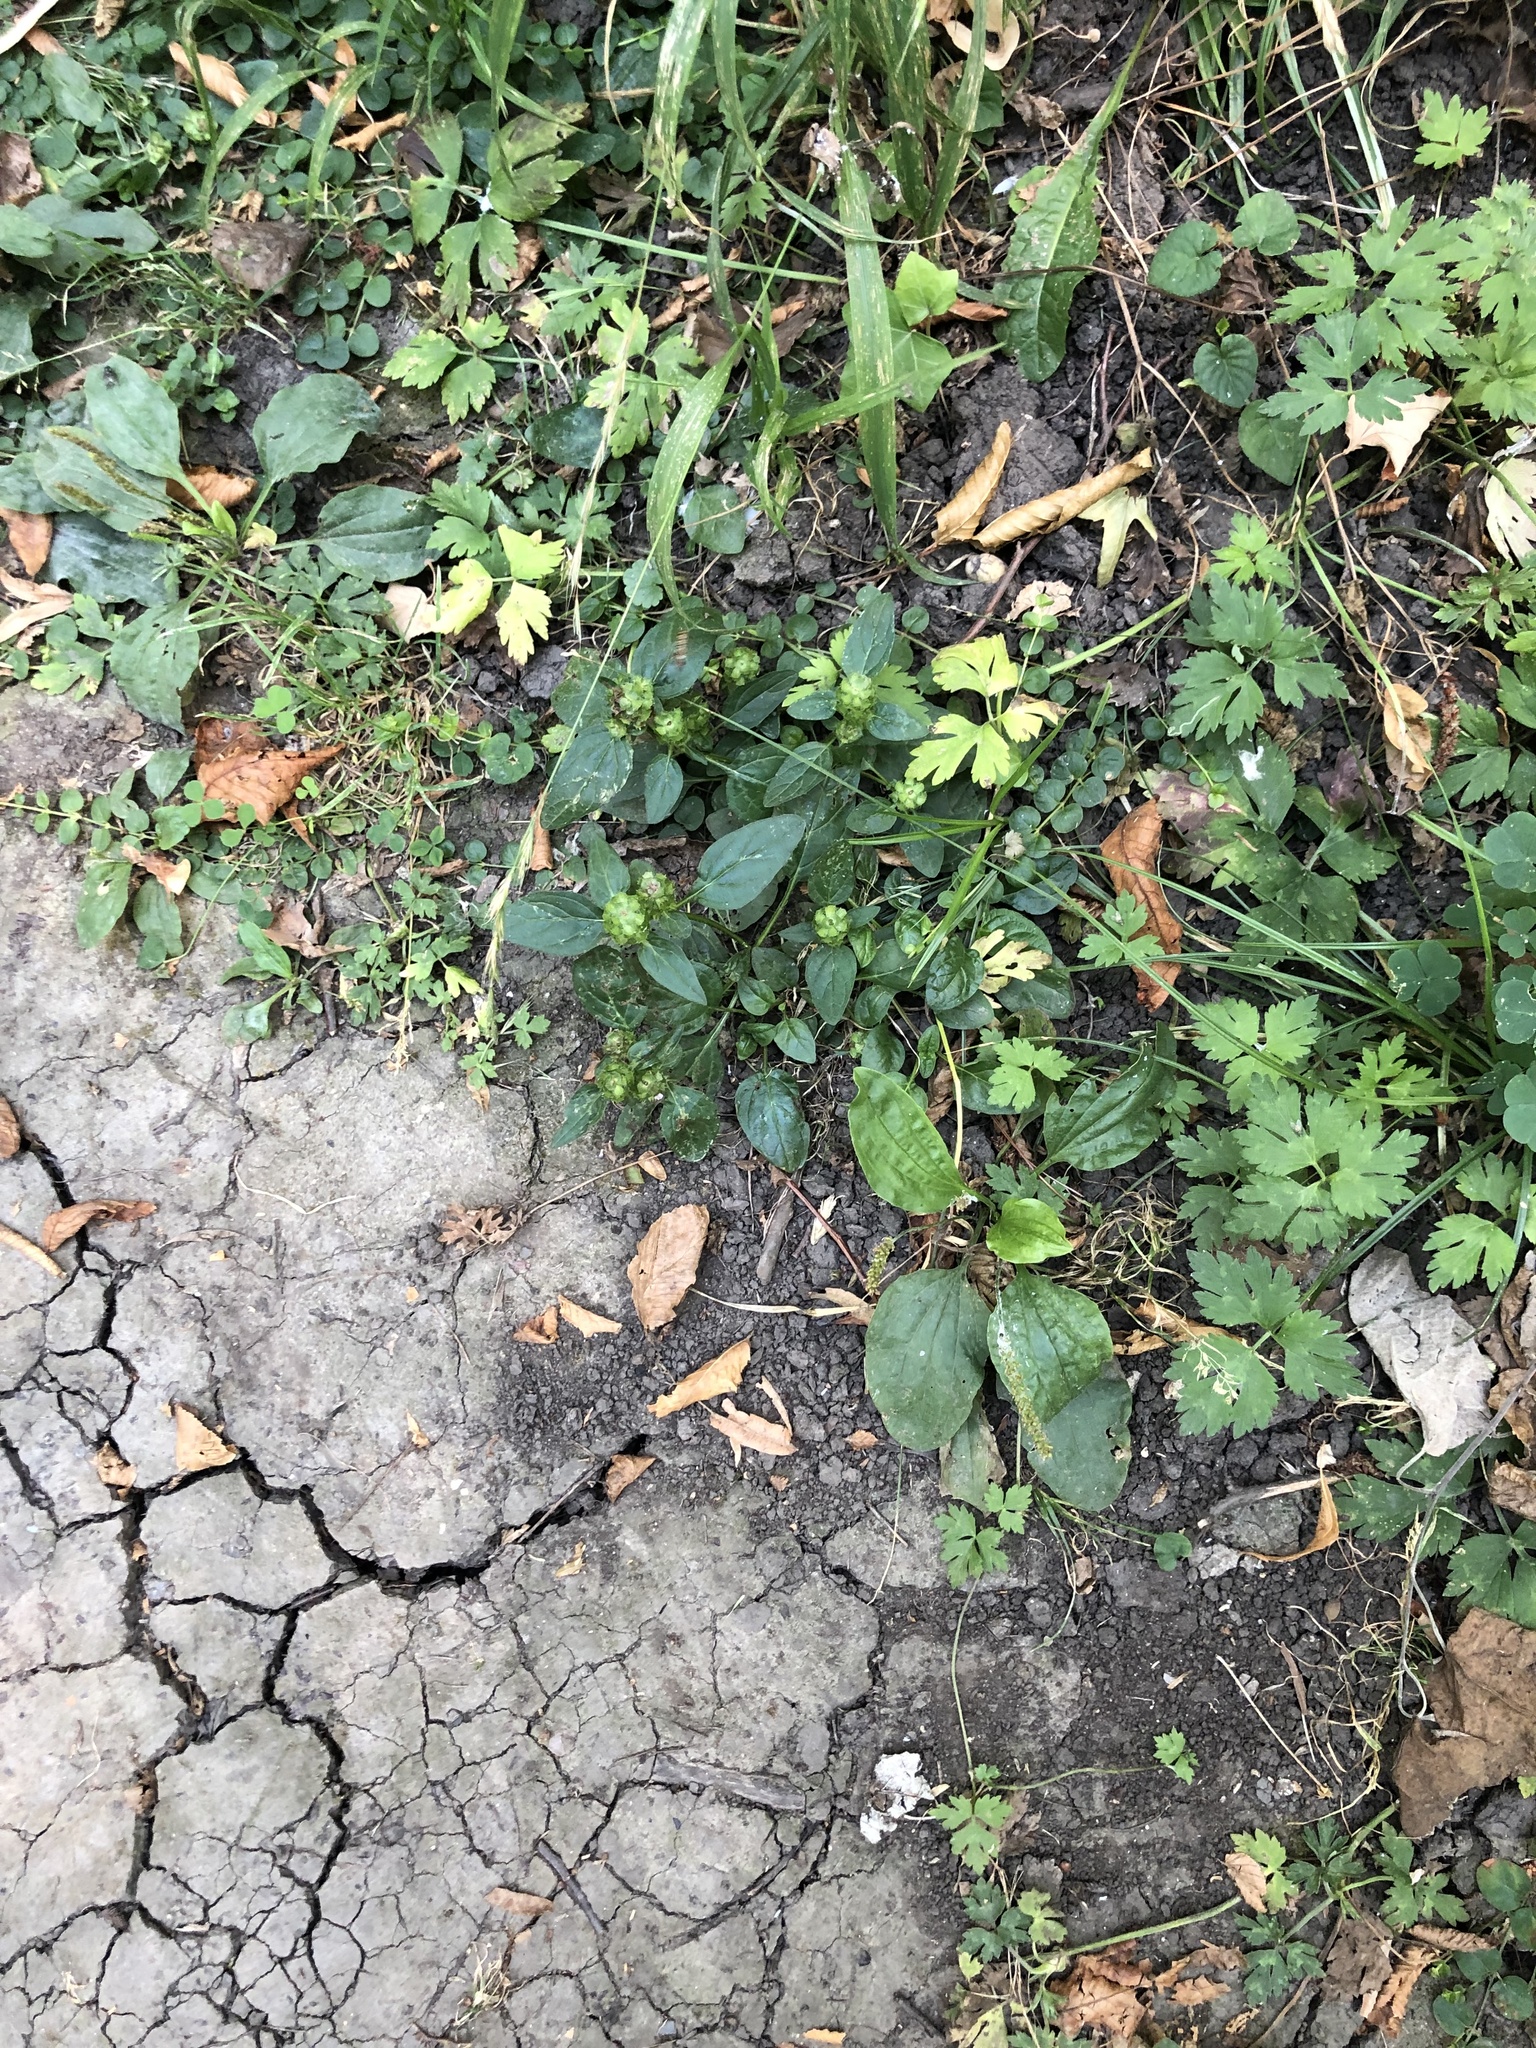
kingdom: Plantae
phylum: Tracheophyta
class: Magnoliopsida
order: Lamiales
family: Lamiaceae
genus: Prunella
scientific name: Prunella vulgaris
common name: Heal-all
